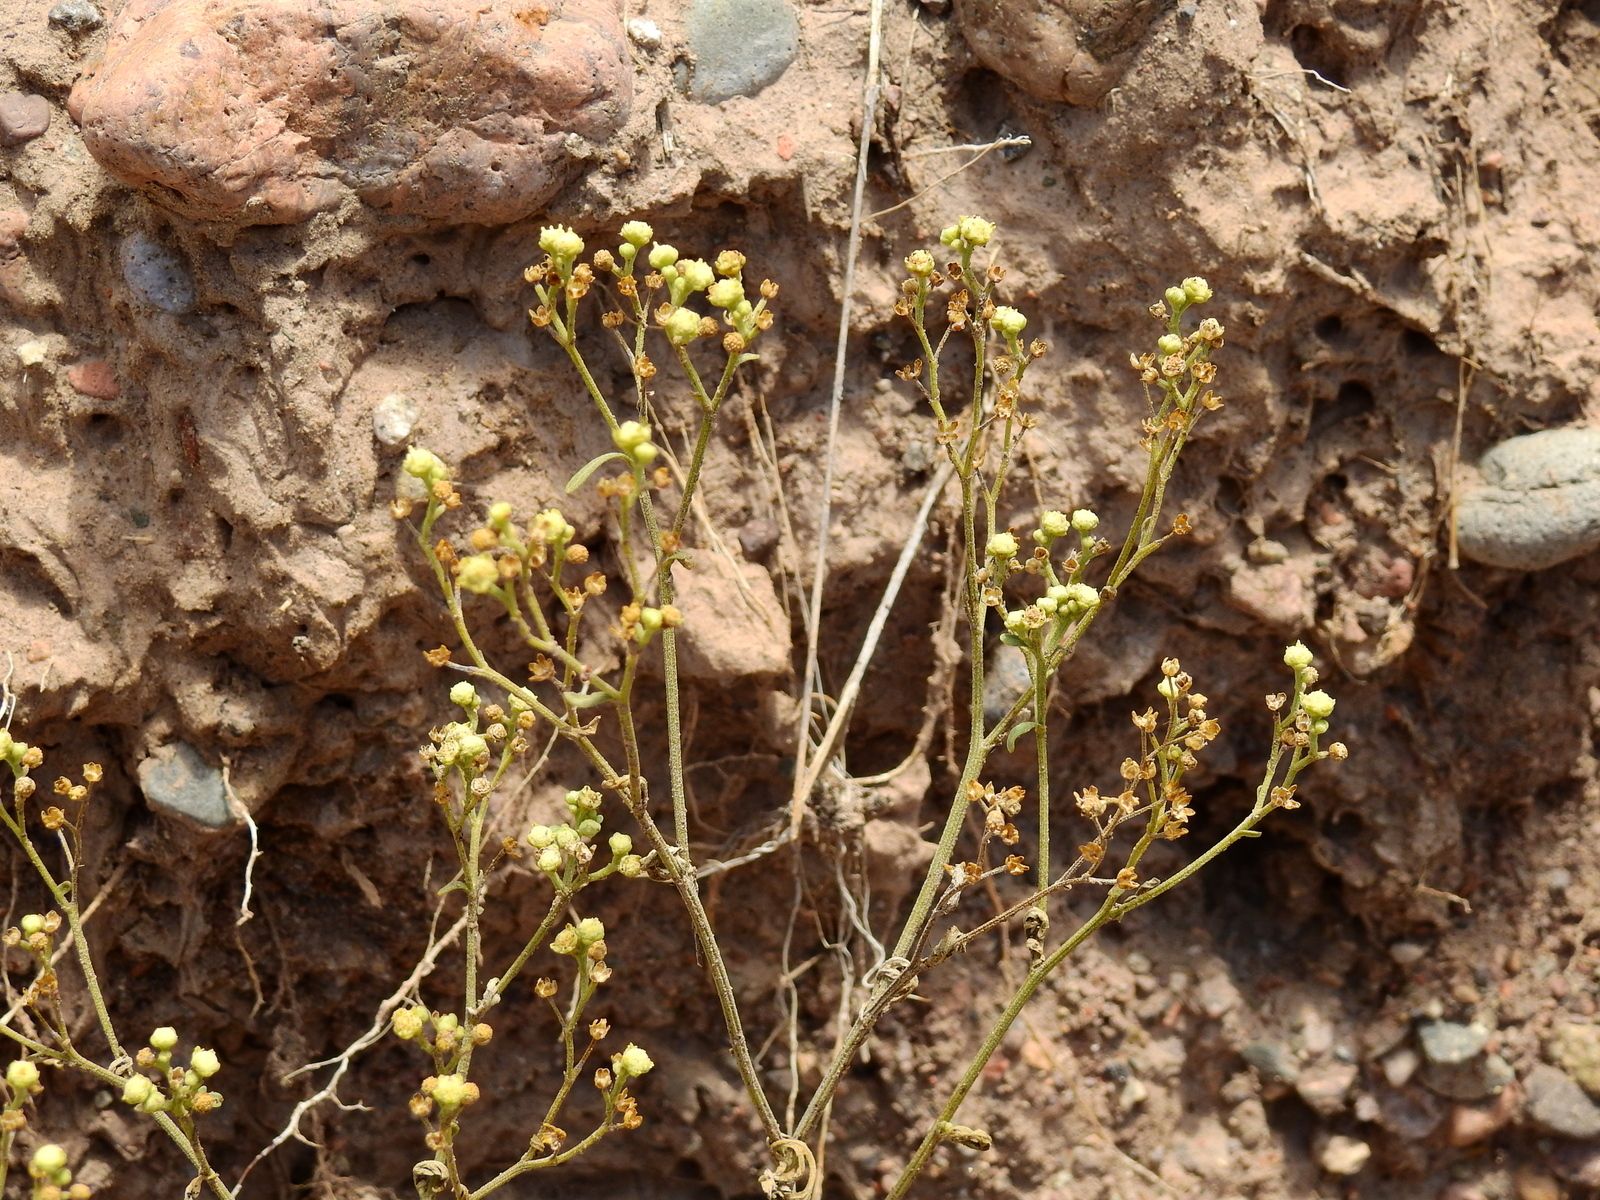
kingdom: Plantae
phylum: Tracheophyta
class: Magnoliopsida
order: Asterales
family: Asteraceae
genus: Parthenium
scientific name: Parthenium hysterophorus
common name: Santa maria feverfew
